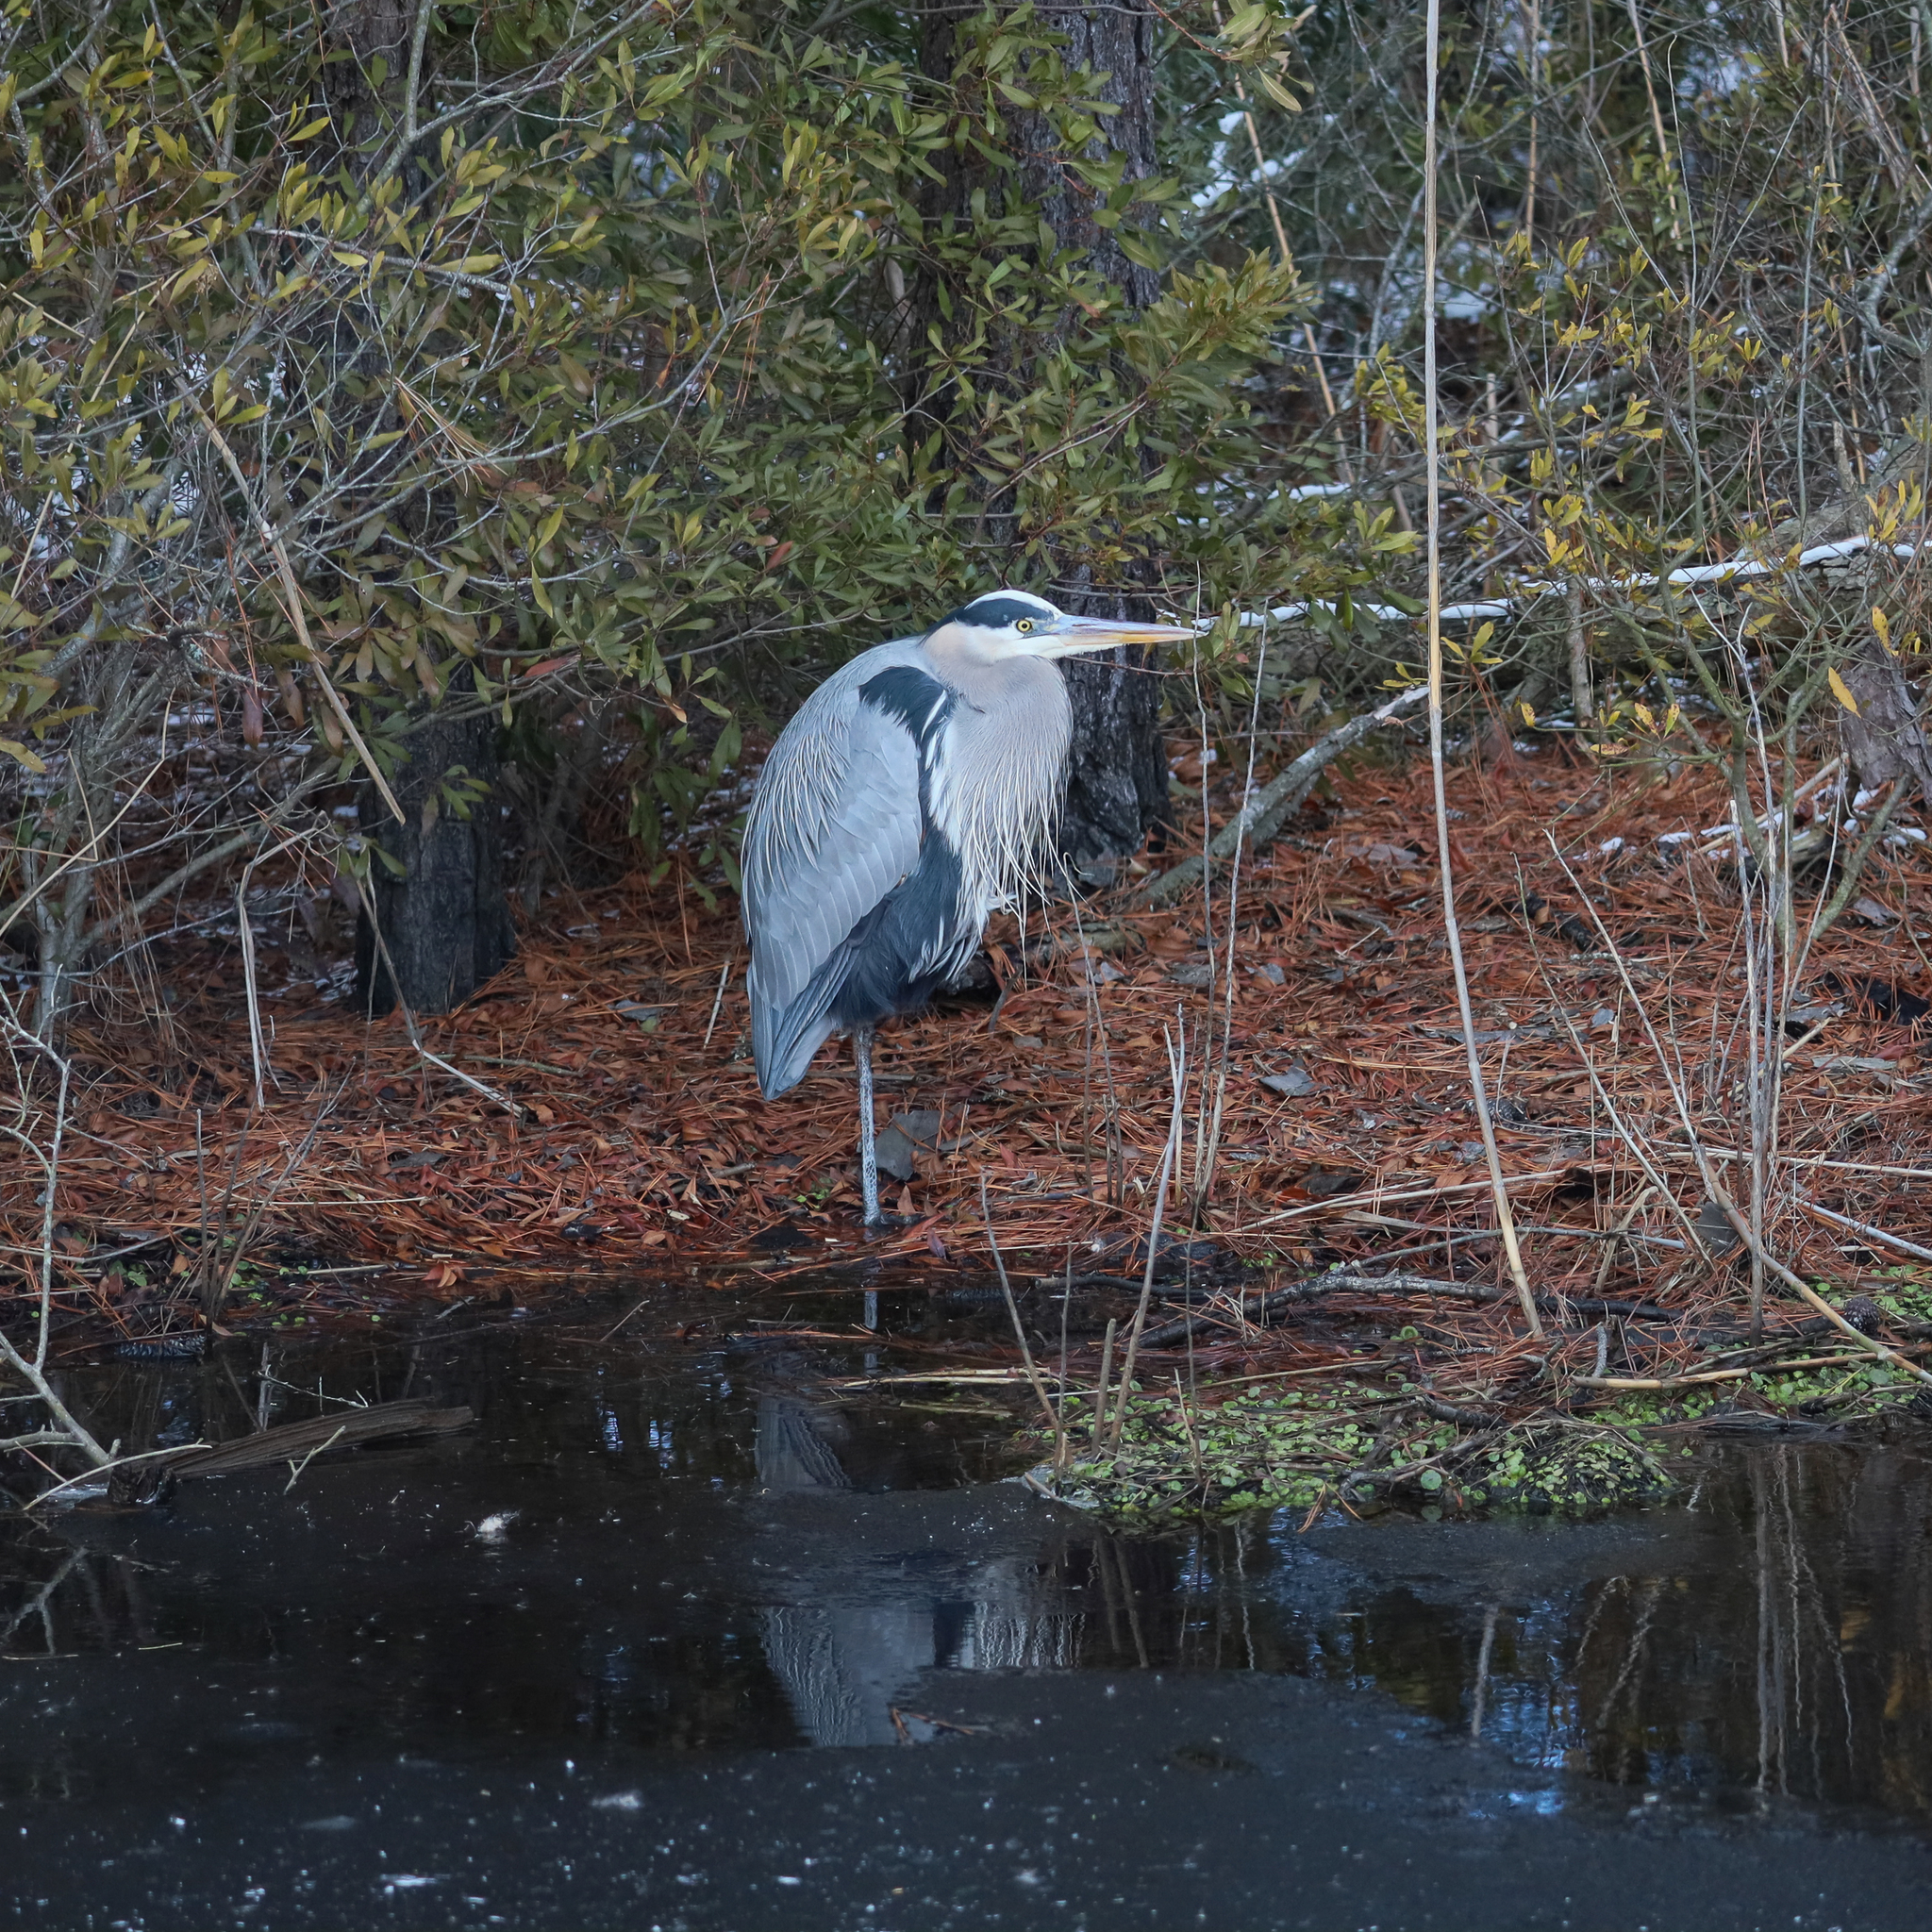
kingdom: Animalia
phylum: Chordata
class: Aves
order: Pelecaniformes
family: Ardeidae
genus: Ardea
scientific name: Ardea herodias
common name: Great blue heron
